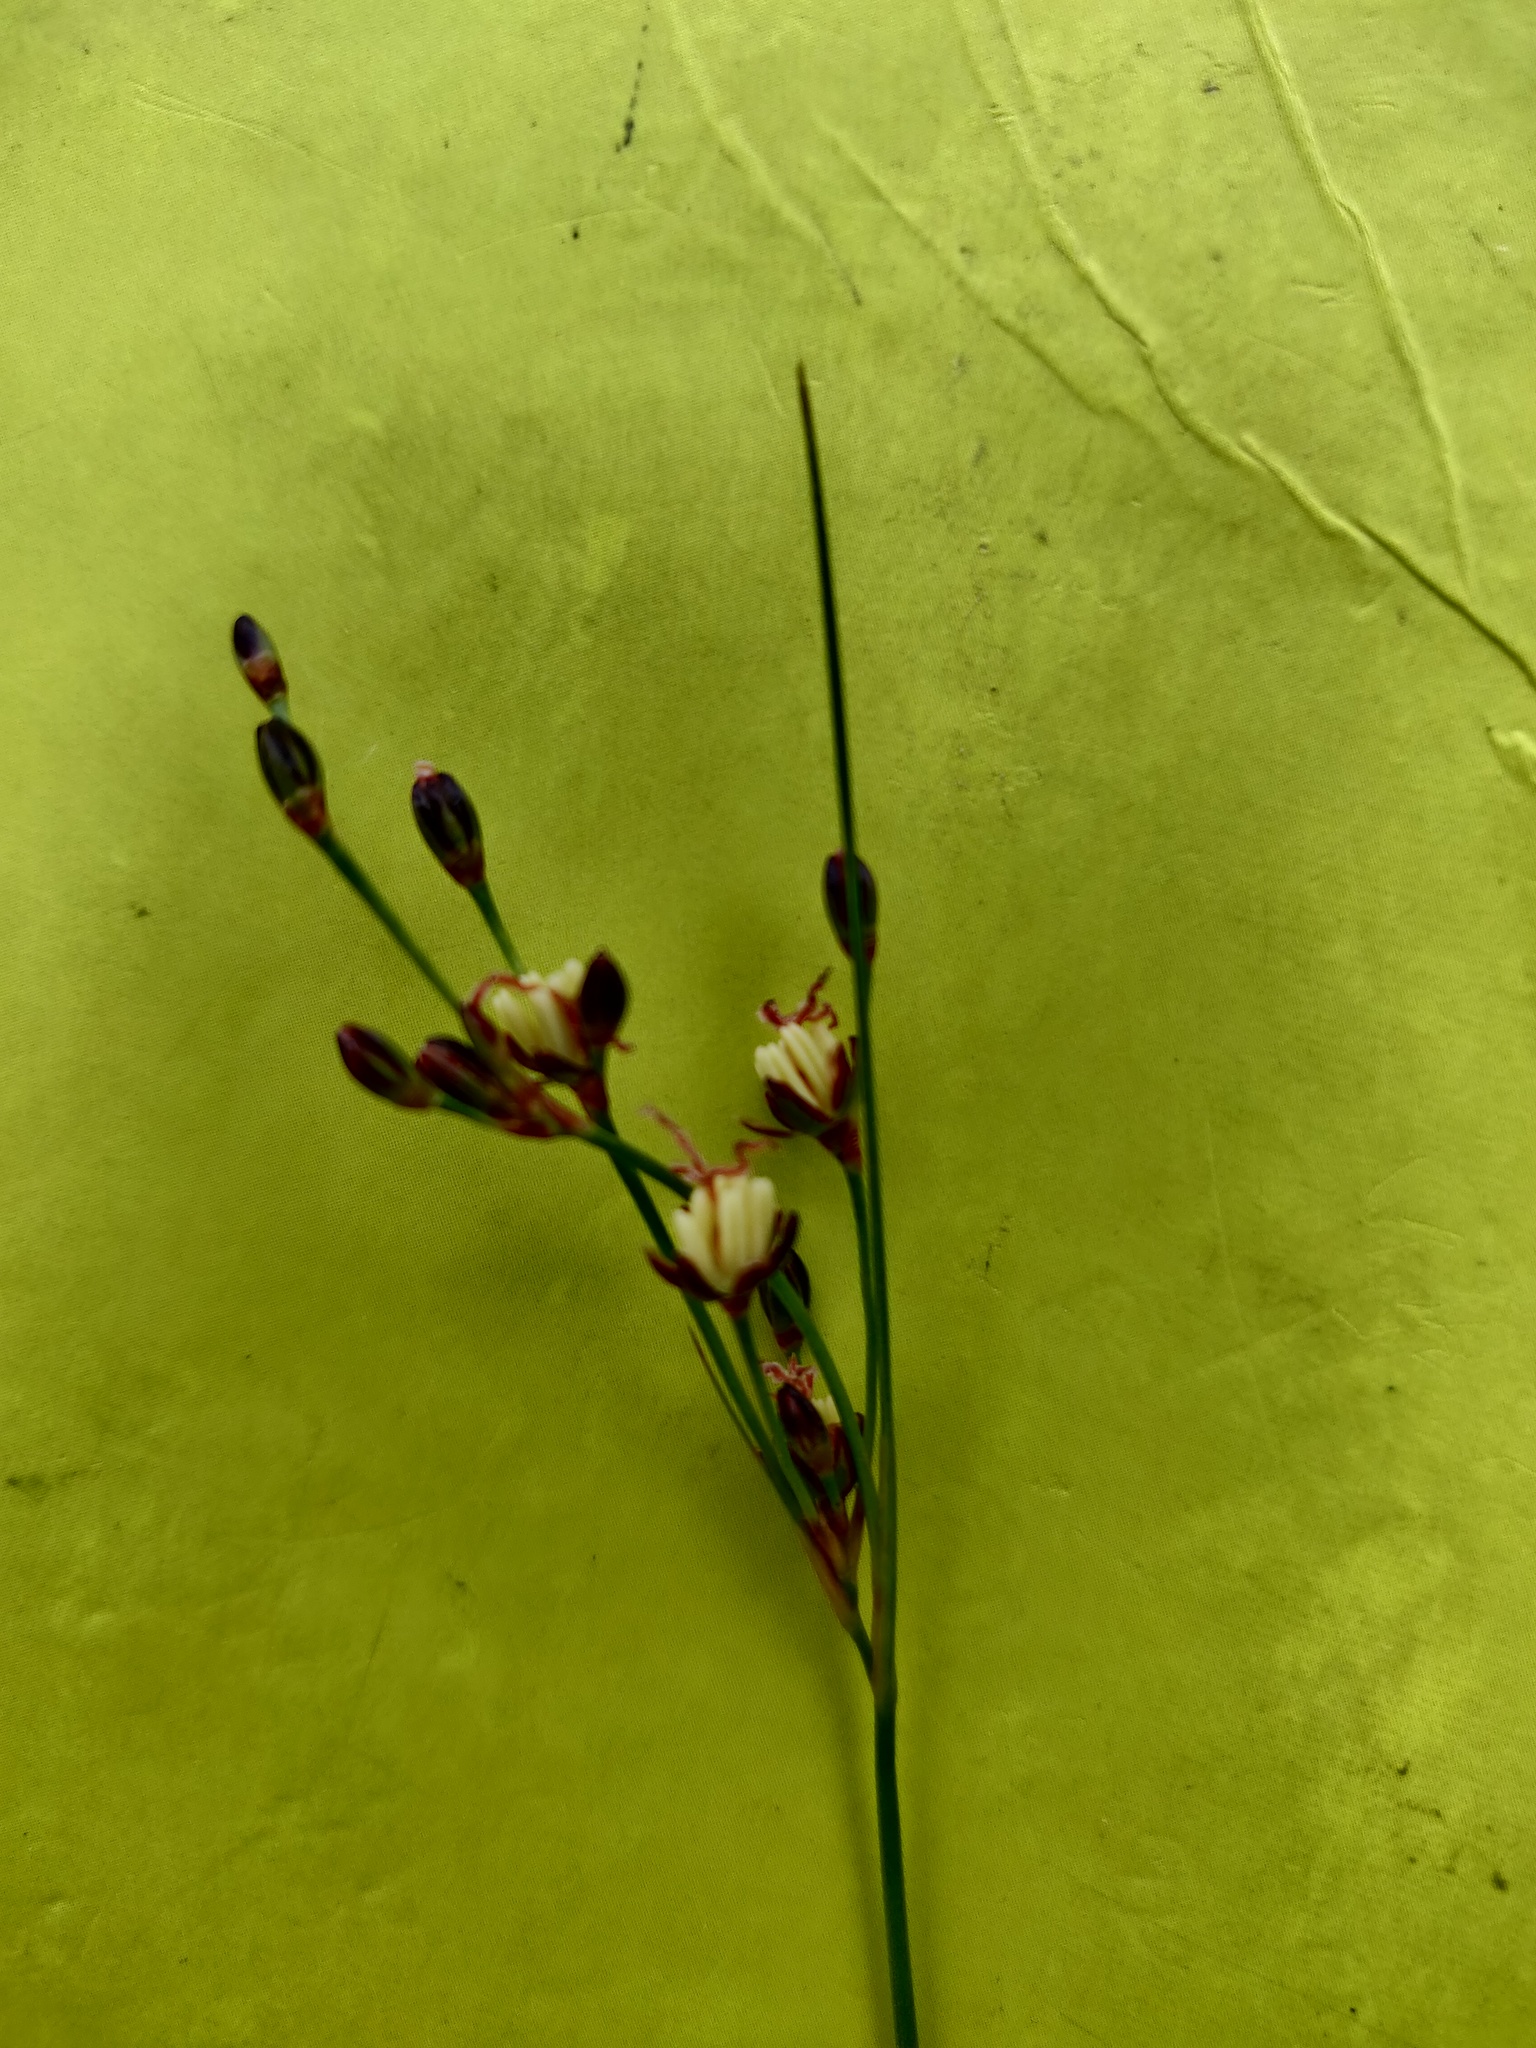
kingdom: Plantae
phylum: Tracheophyta
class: Liliopsida
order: Poales
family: Juncaceae
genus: Juncus
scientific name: Juncus gerardi
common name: Saltmarsh rush
